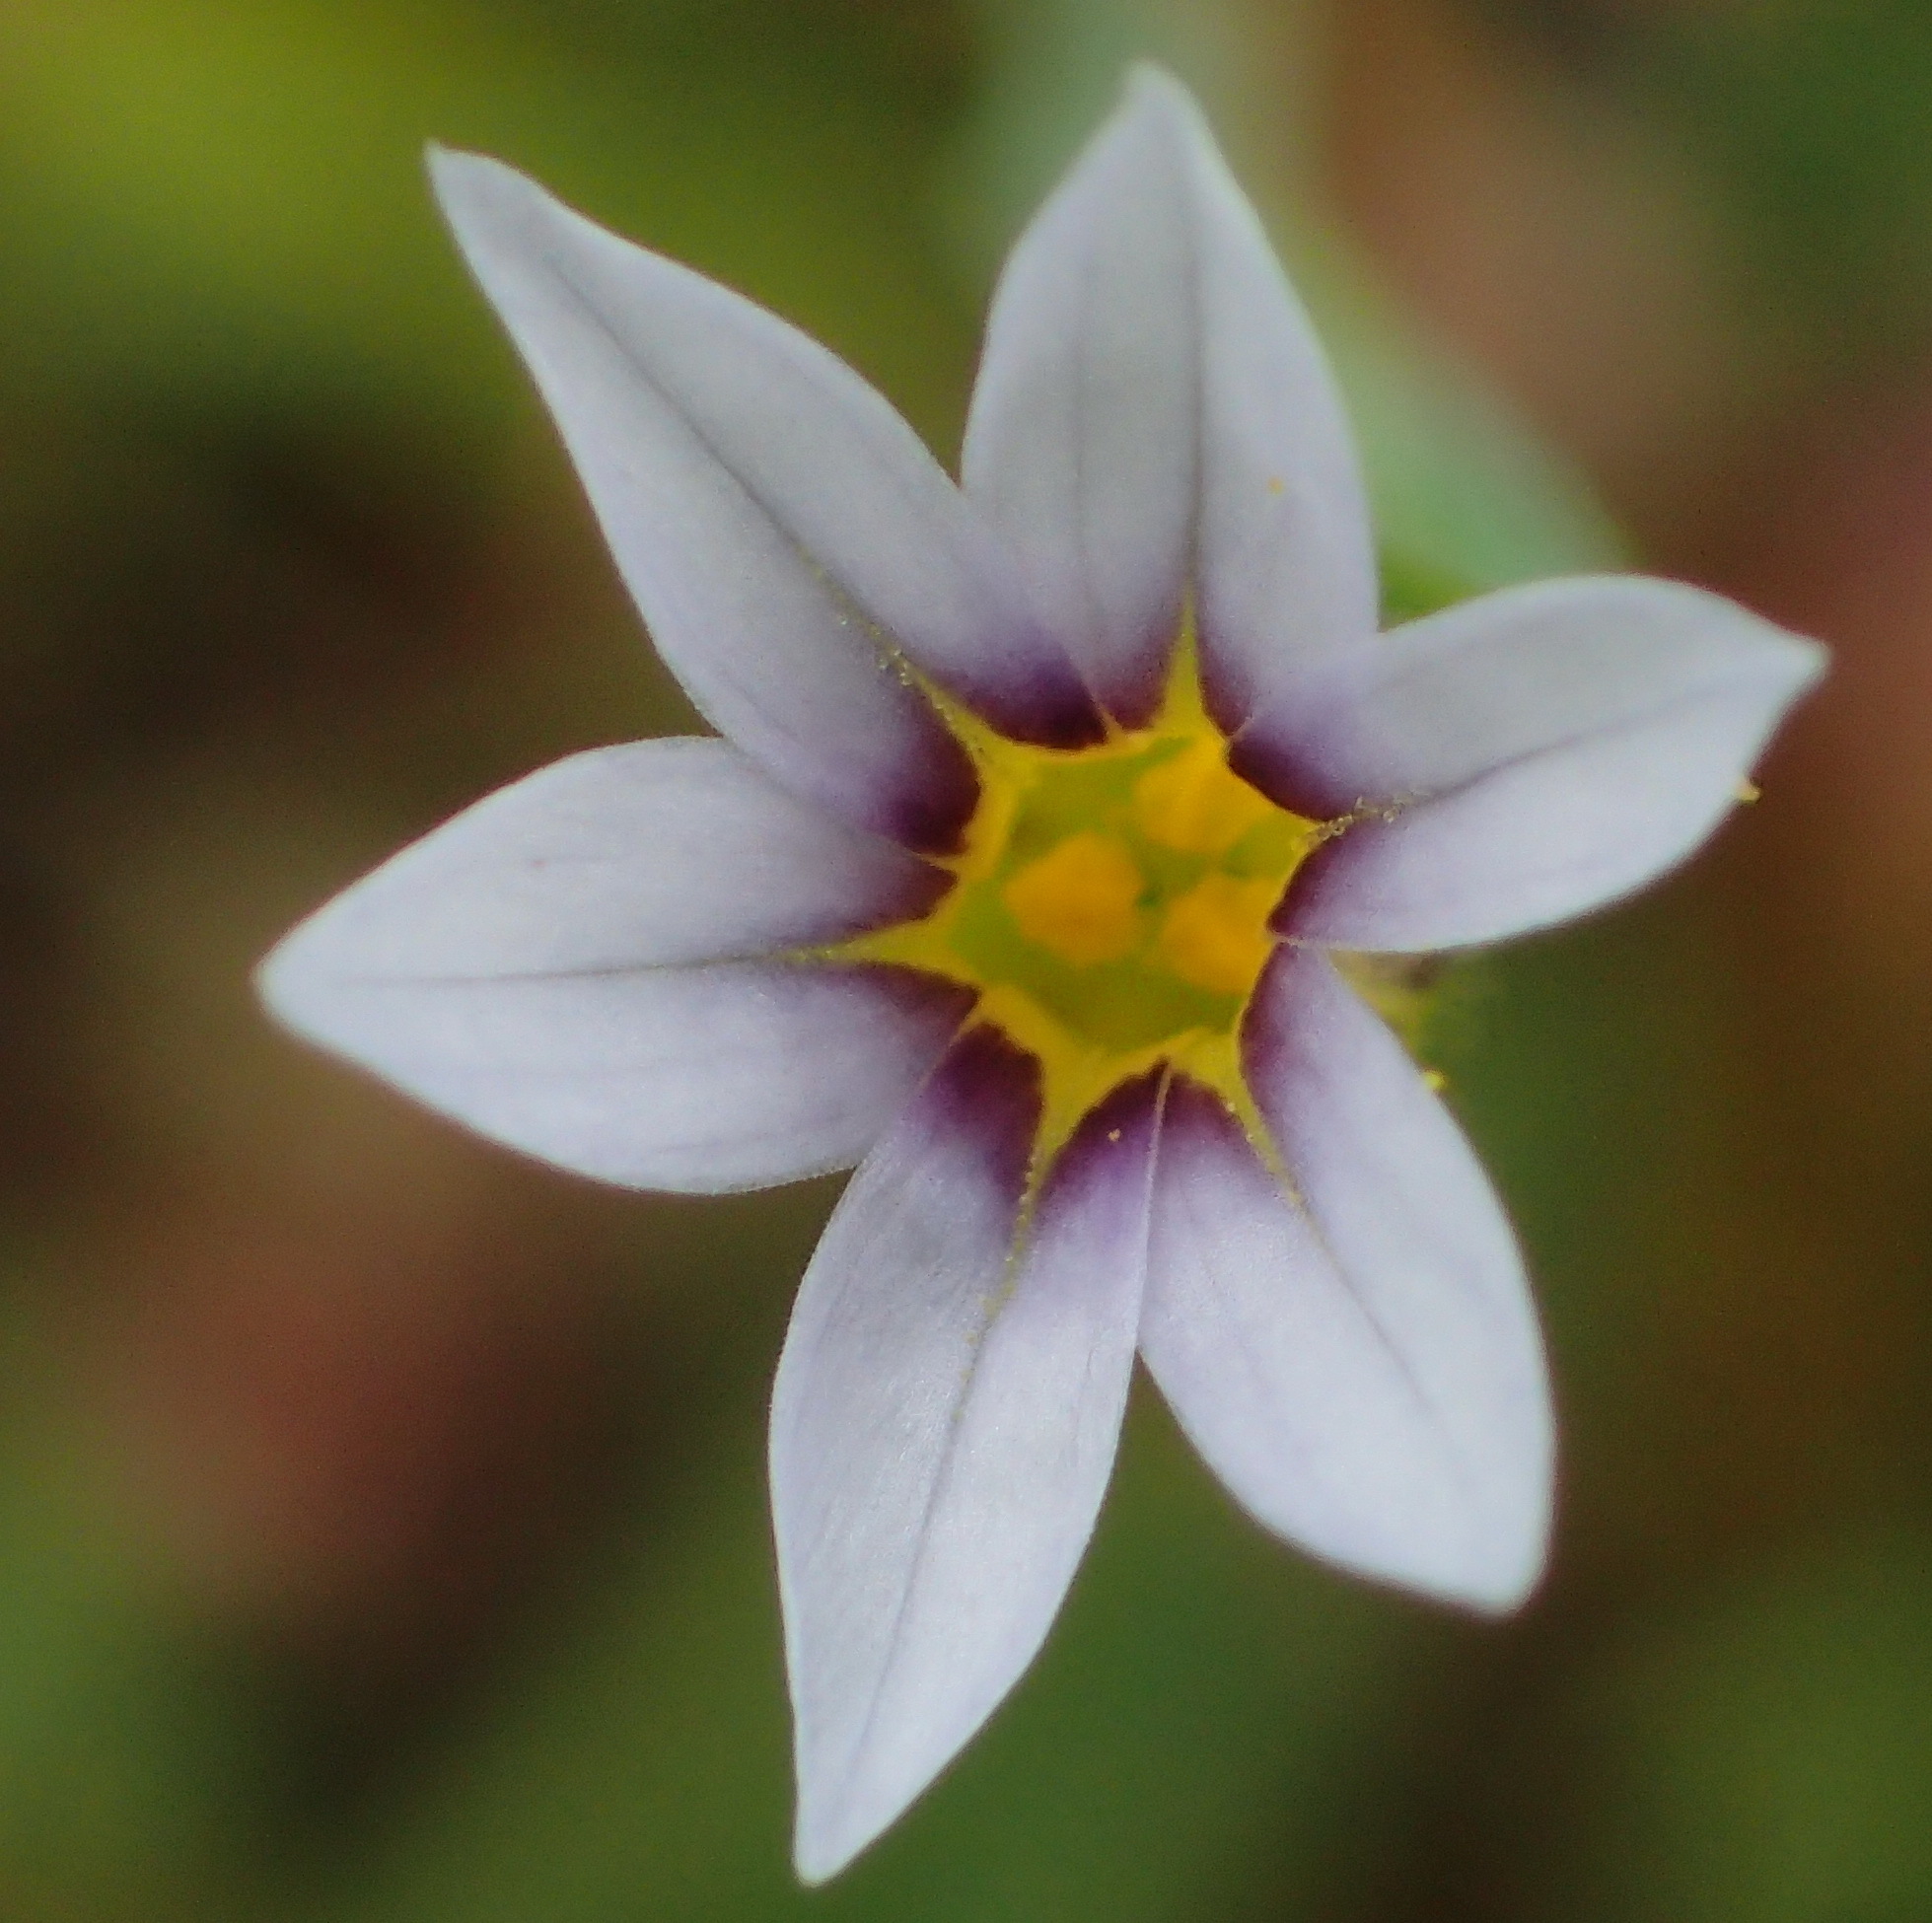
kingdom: Plantae
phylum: Tracheophyta
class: Liliopsida
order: Asparagales
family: Iridaceae
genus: Sisyrinchium
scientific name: Sisyrinchium micranthum
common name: Bermuda pigroot
